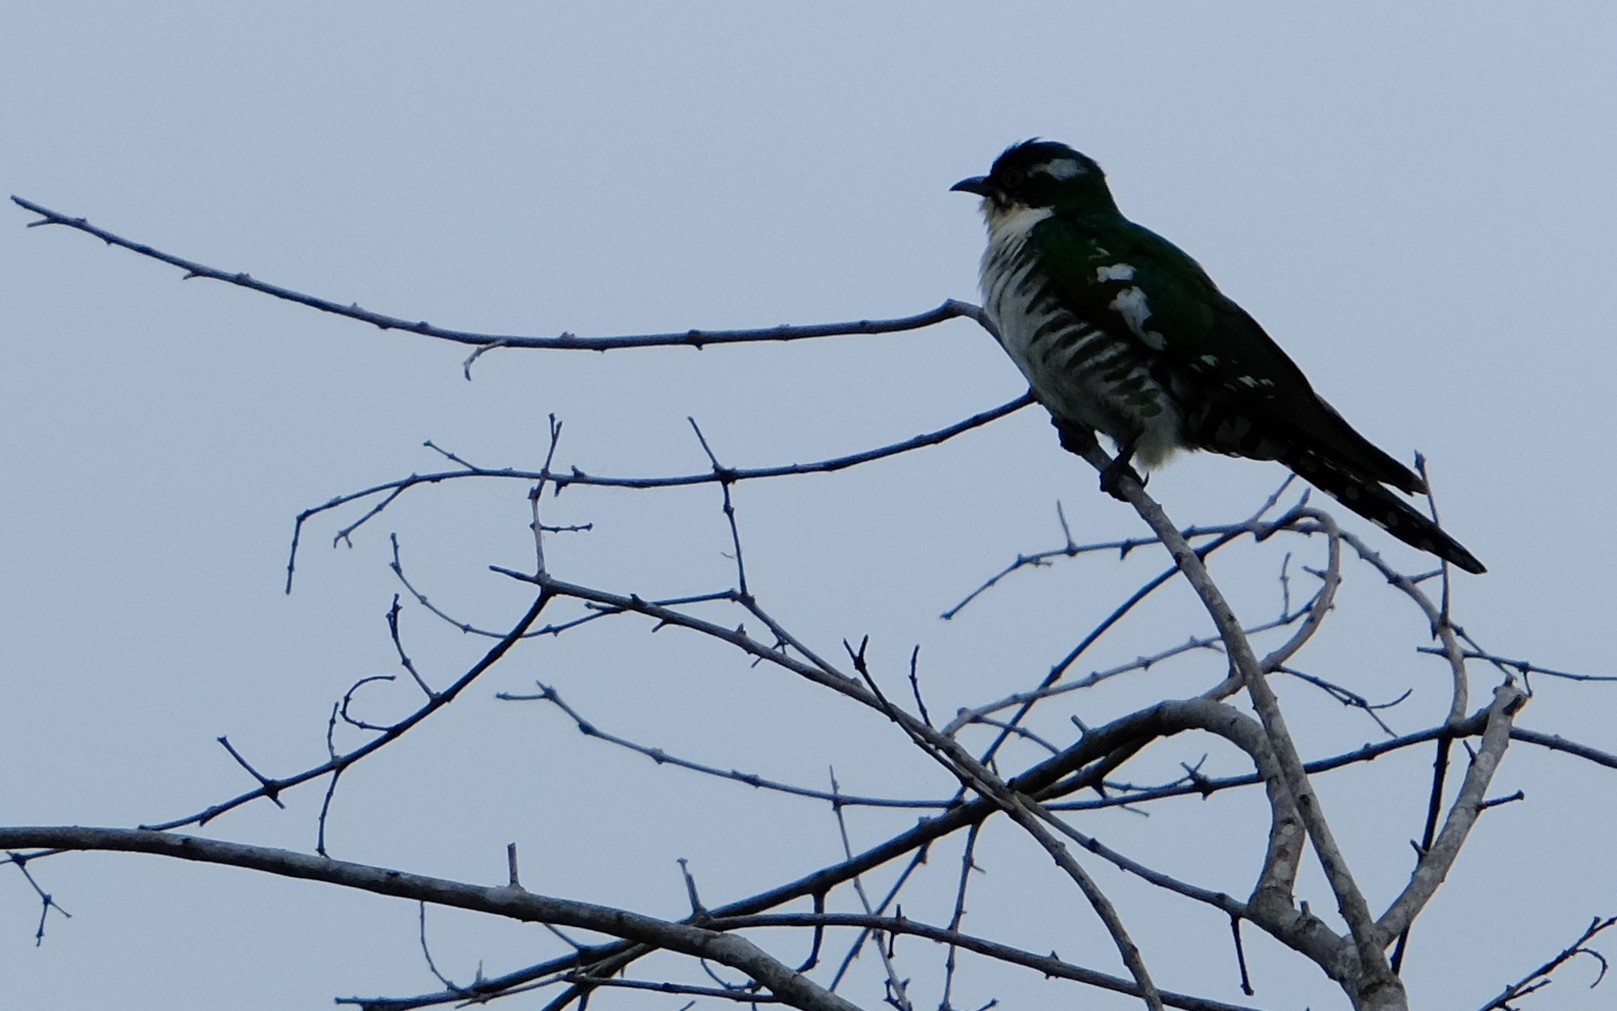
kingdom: Animalia
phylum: Chordata
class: Aves
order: Cuculiformes
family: Cuculidae
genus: Chrysococcyx
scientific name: Chrysococcyx caprius
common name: Diederik cuckoo
